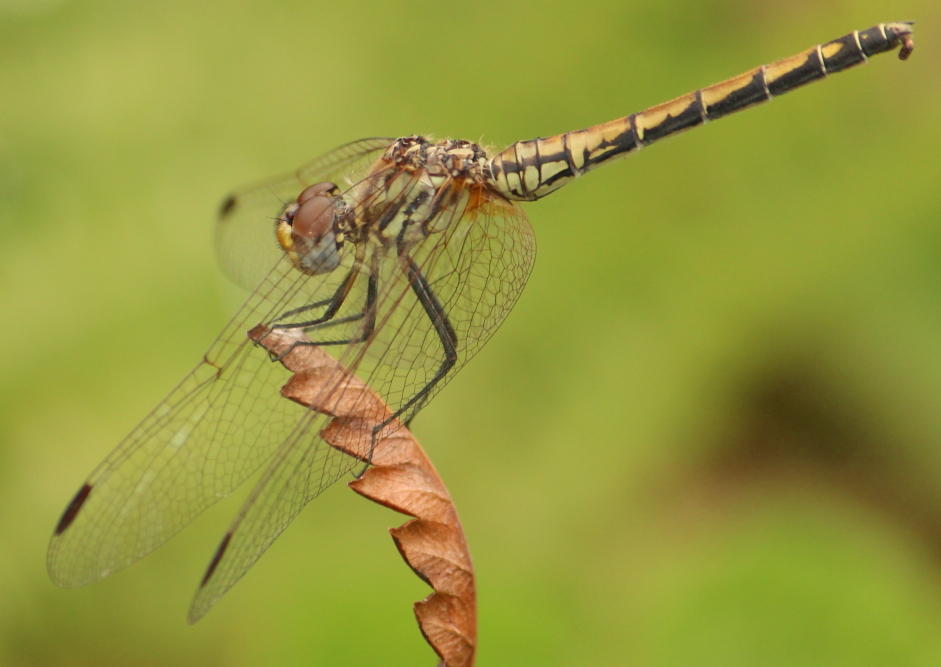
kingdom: Animalia
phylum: Arthropoda
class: Insecta
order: Odonata
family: Libellulidae
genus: Trithemis
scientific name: Trithemis arteriosa
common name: Red-veined dropwing
